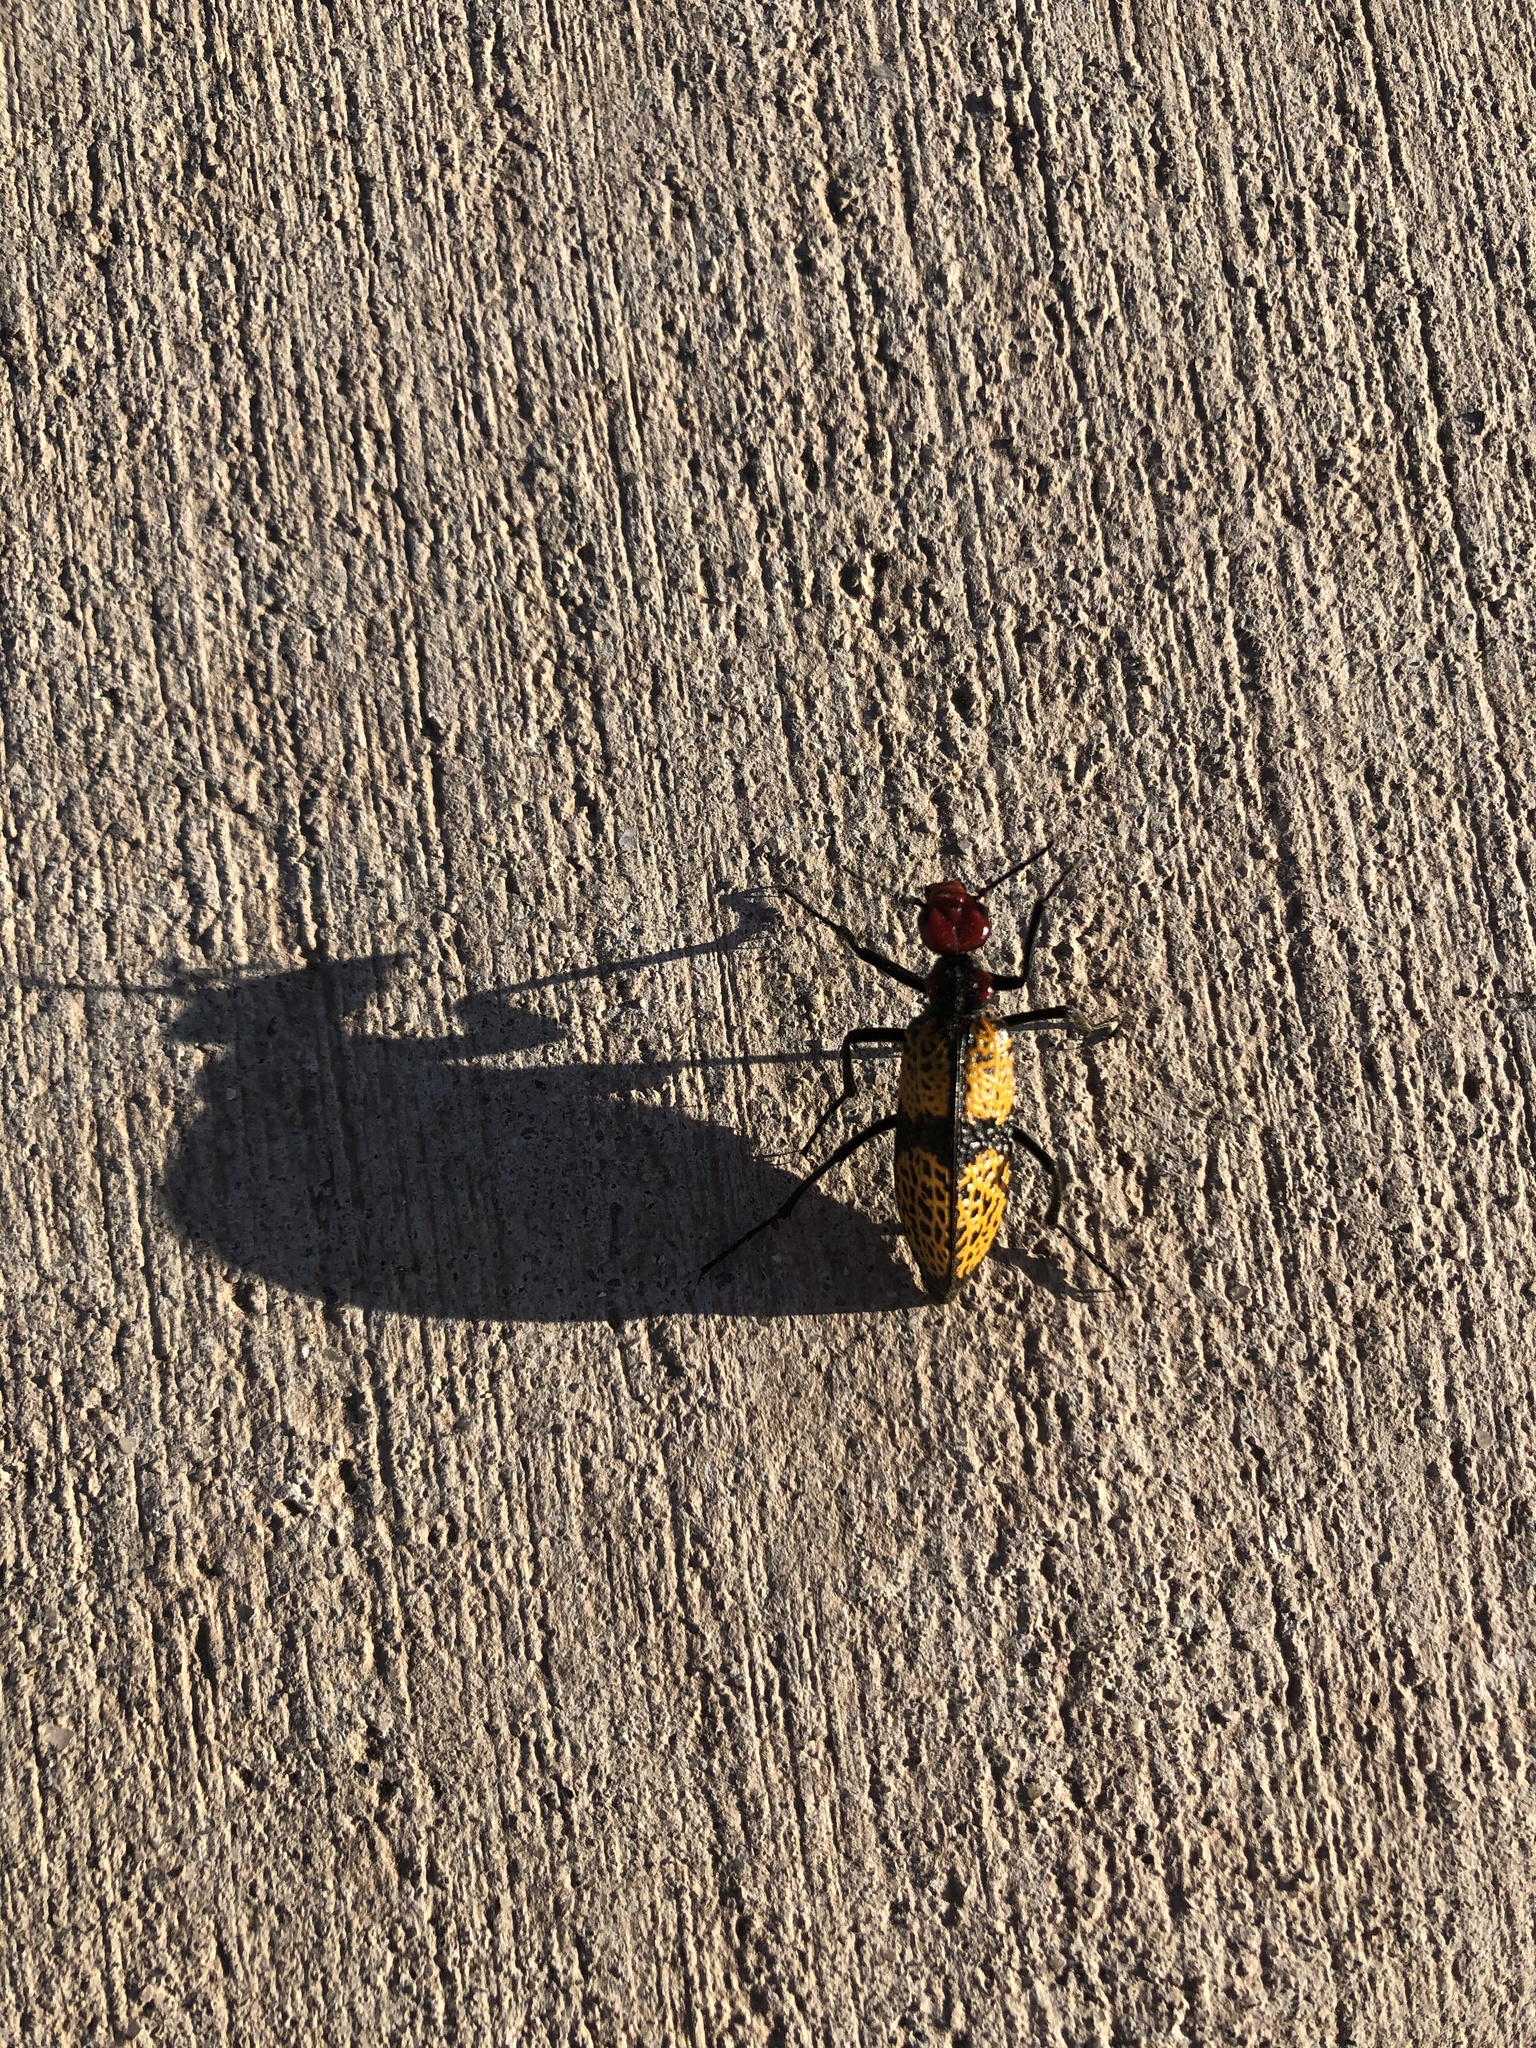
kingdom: Animalia
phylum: Arthropoda
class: Insecta
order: Coleoptera
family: Meloidae
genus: Tegrodera
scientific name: Tegrodera aloga
